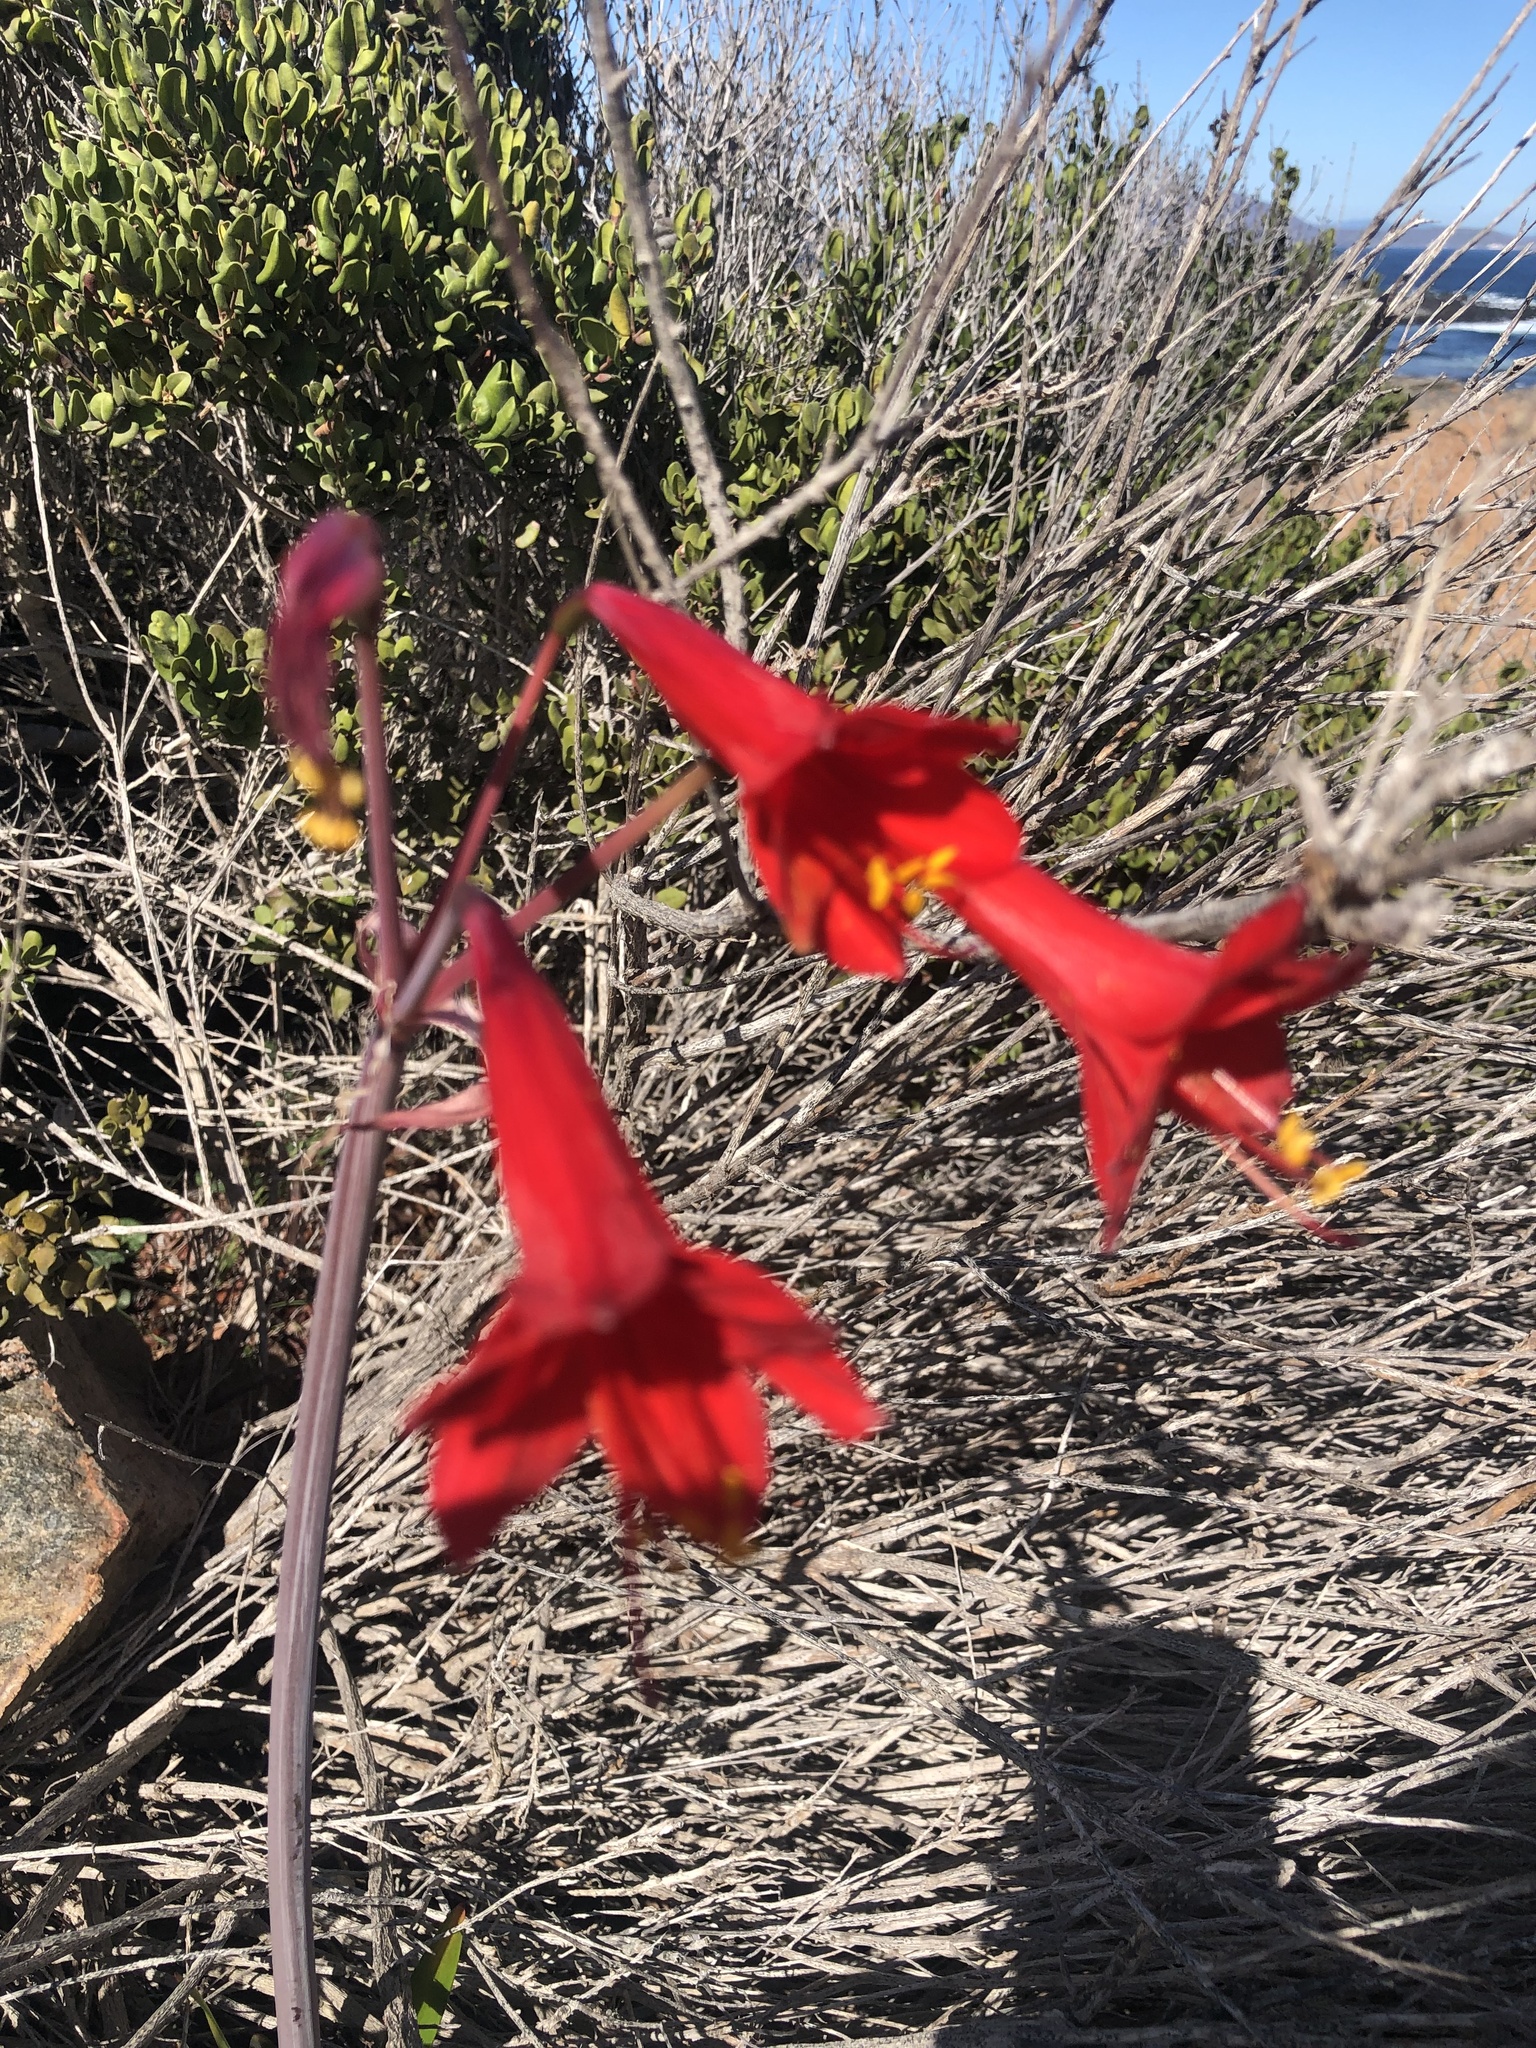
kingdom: Plantae
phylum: Tracheophyta
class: Liliopsida
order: Asparagales
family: Amaryllidaceae
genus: Phycella
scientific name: Phycella cyrtanthoides
